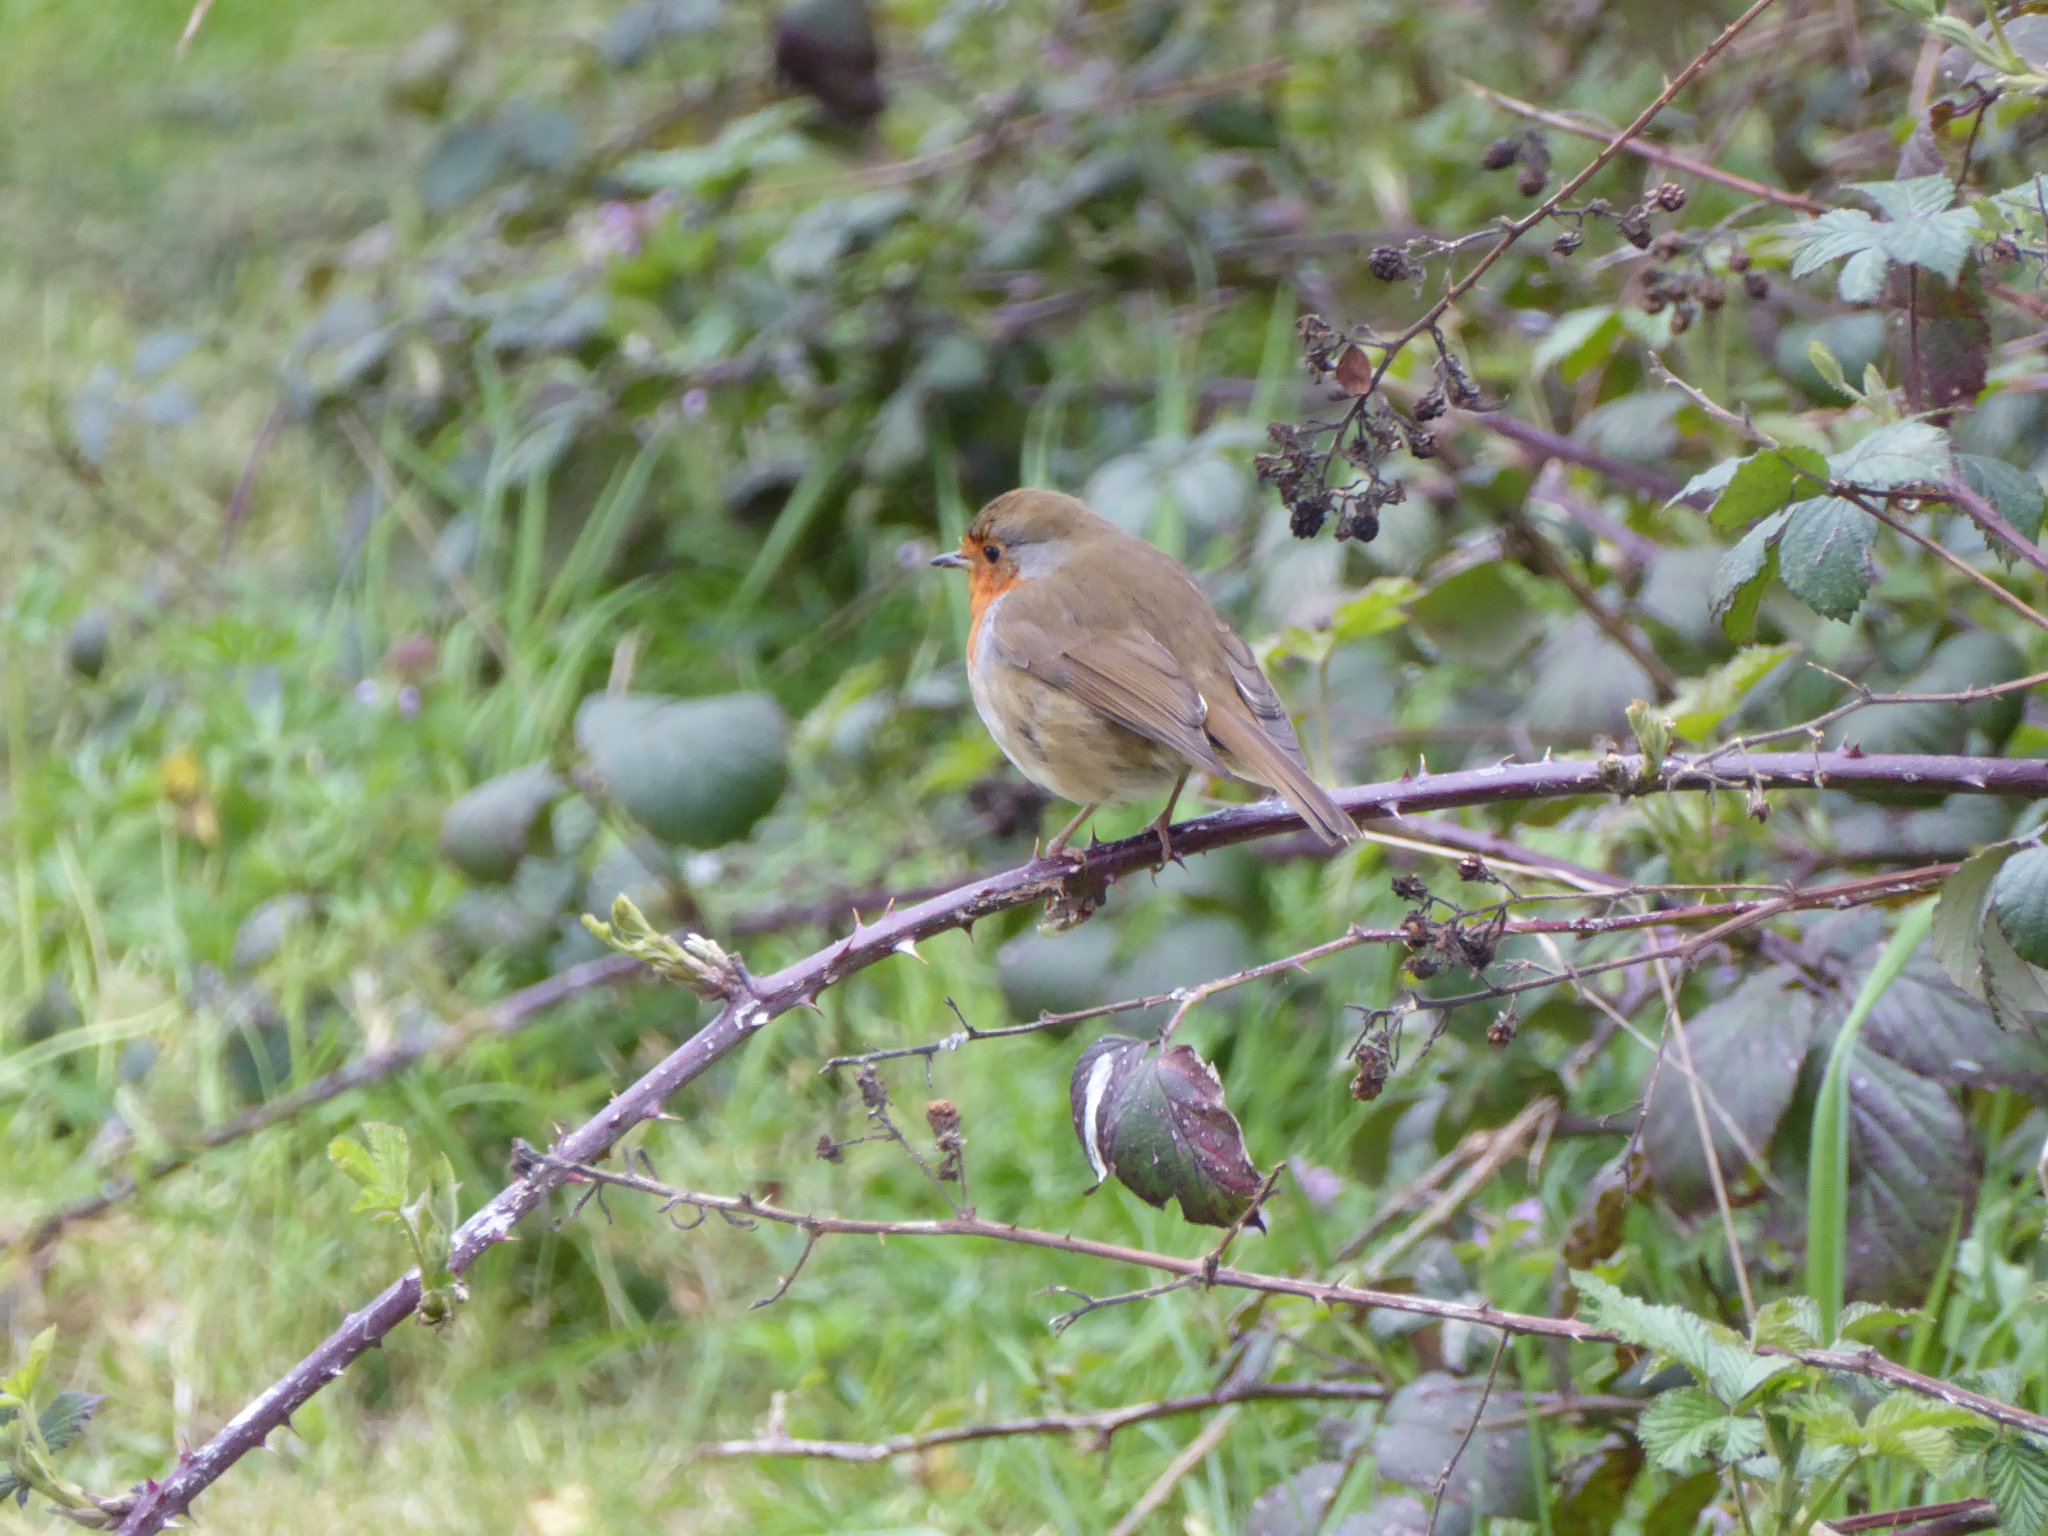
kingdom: Animalia
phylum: Chordata
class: Aves
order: Passeriformes
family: Muscicapidae
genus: Erithacus
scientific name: Erithacus rubecula
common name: European robin
